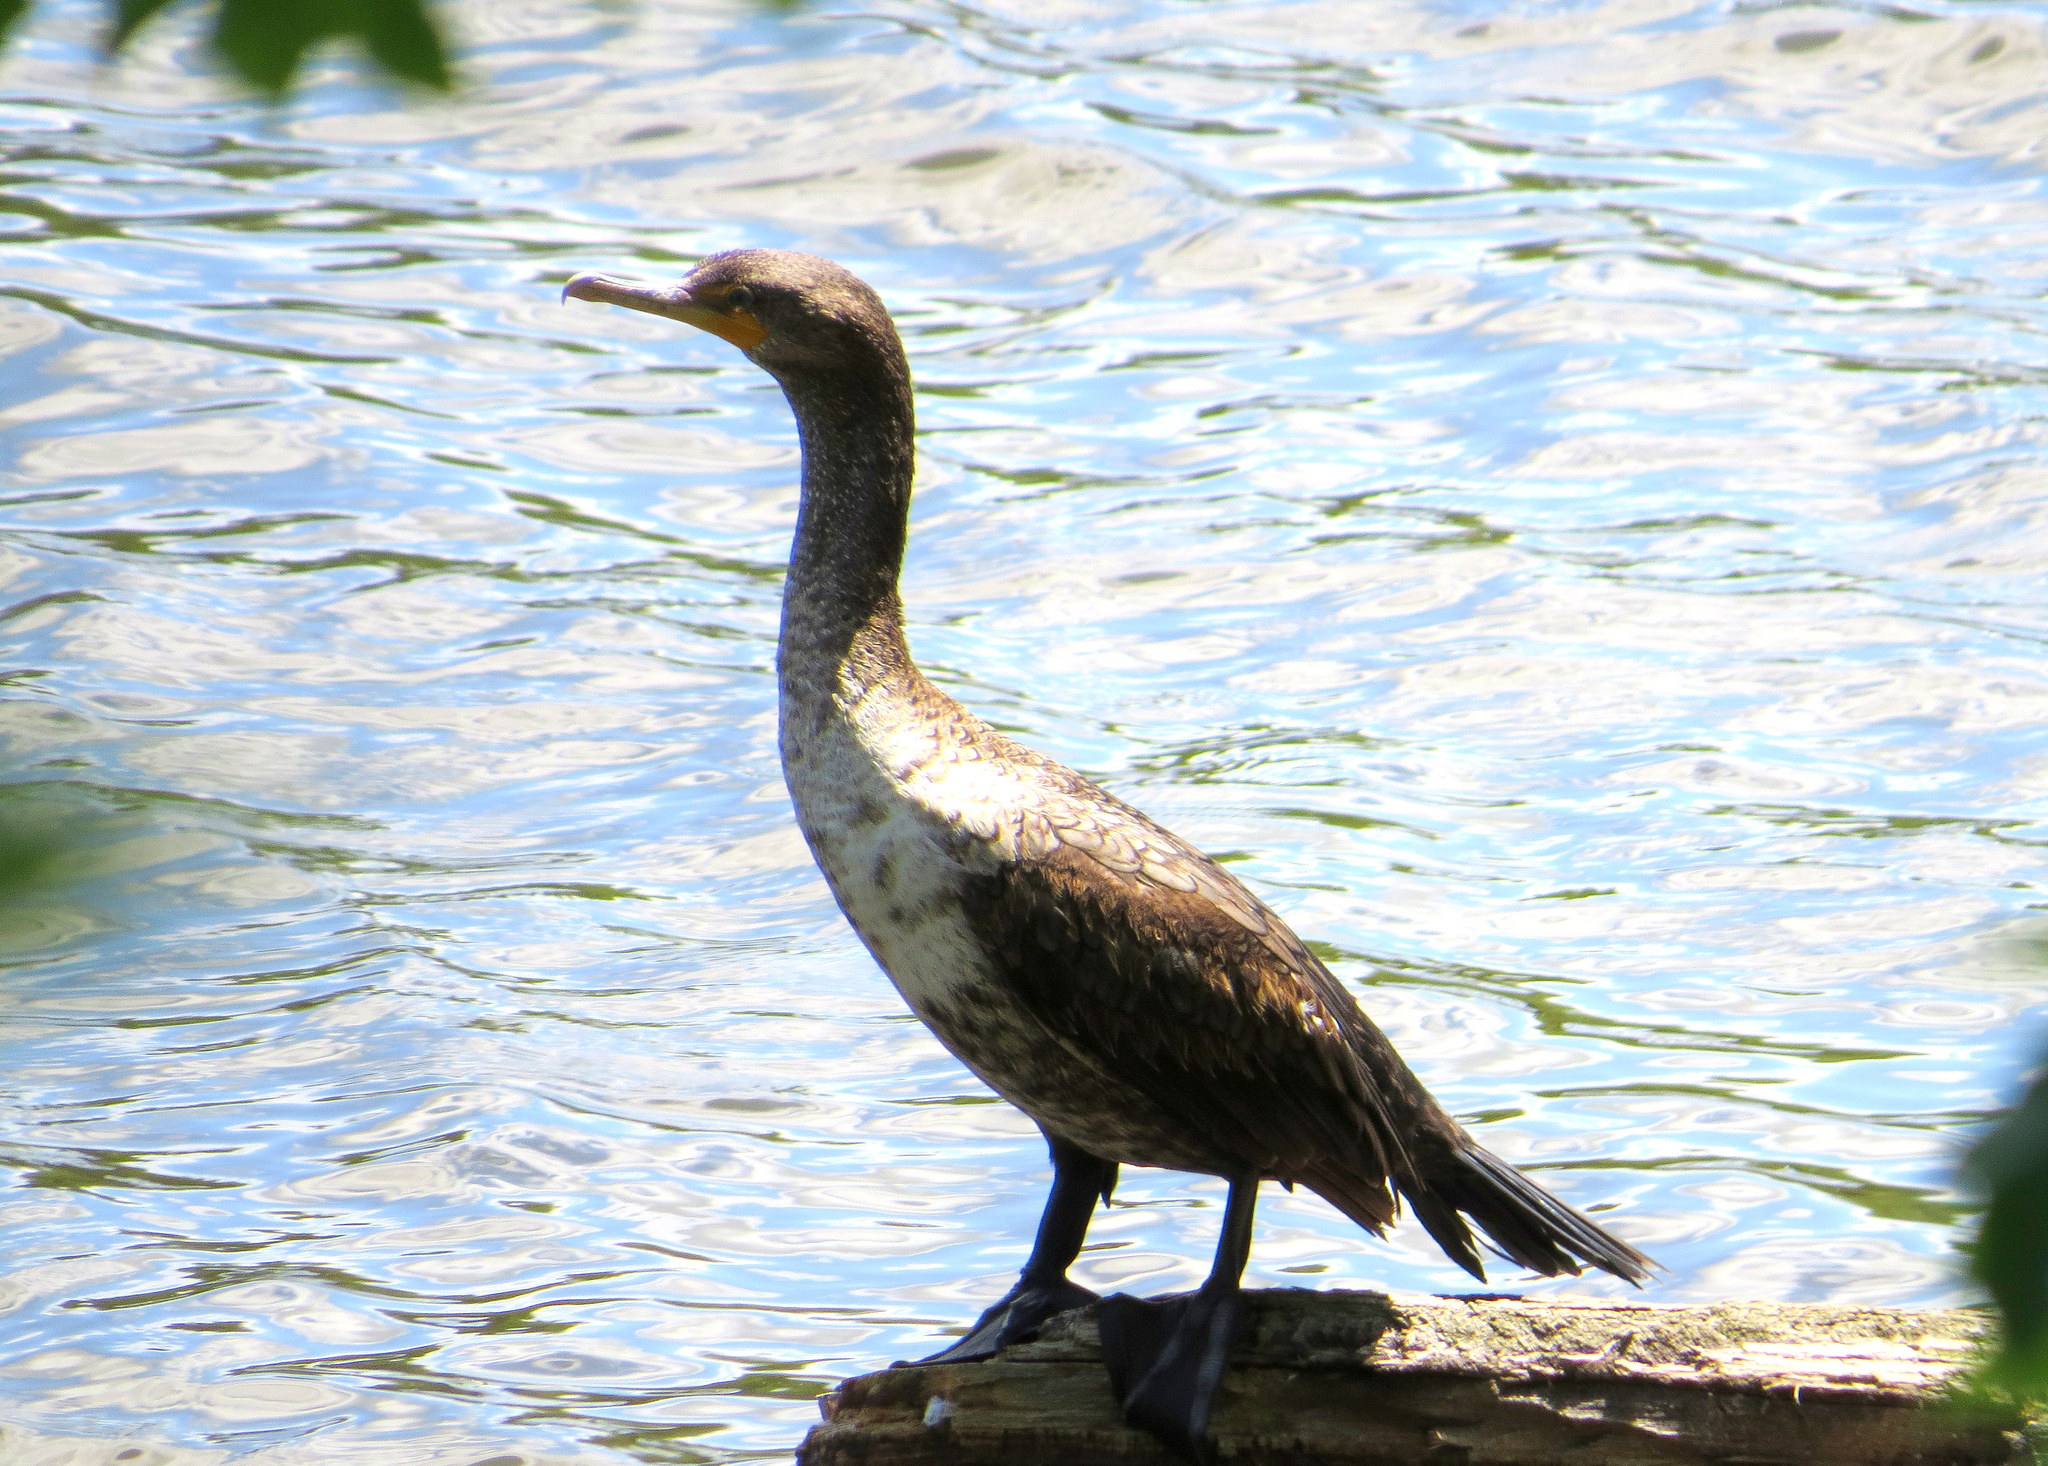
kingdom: Animalia
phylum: Chordata
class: Aves
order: Suliformes
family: Phalacrocoracidae
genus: Phalacrocorax
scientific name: Phalacrocorax auritus
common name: Double-crested cormorant
